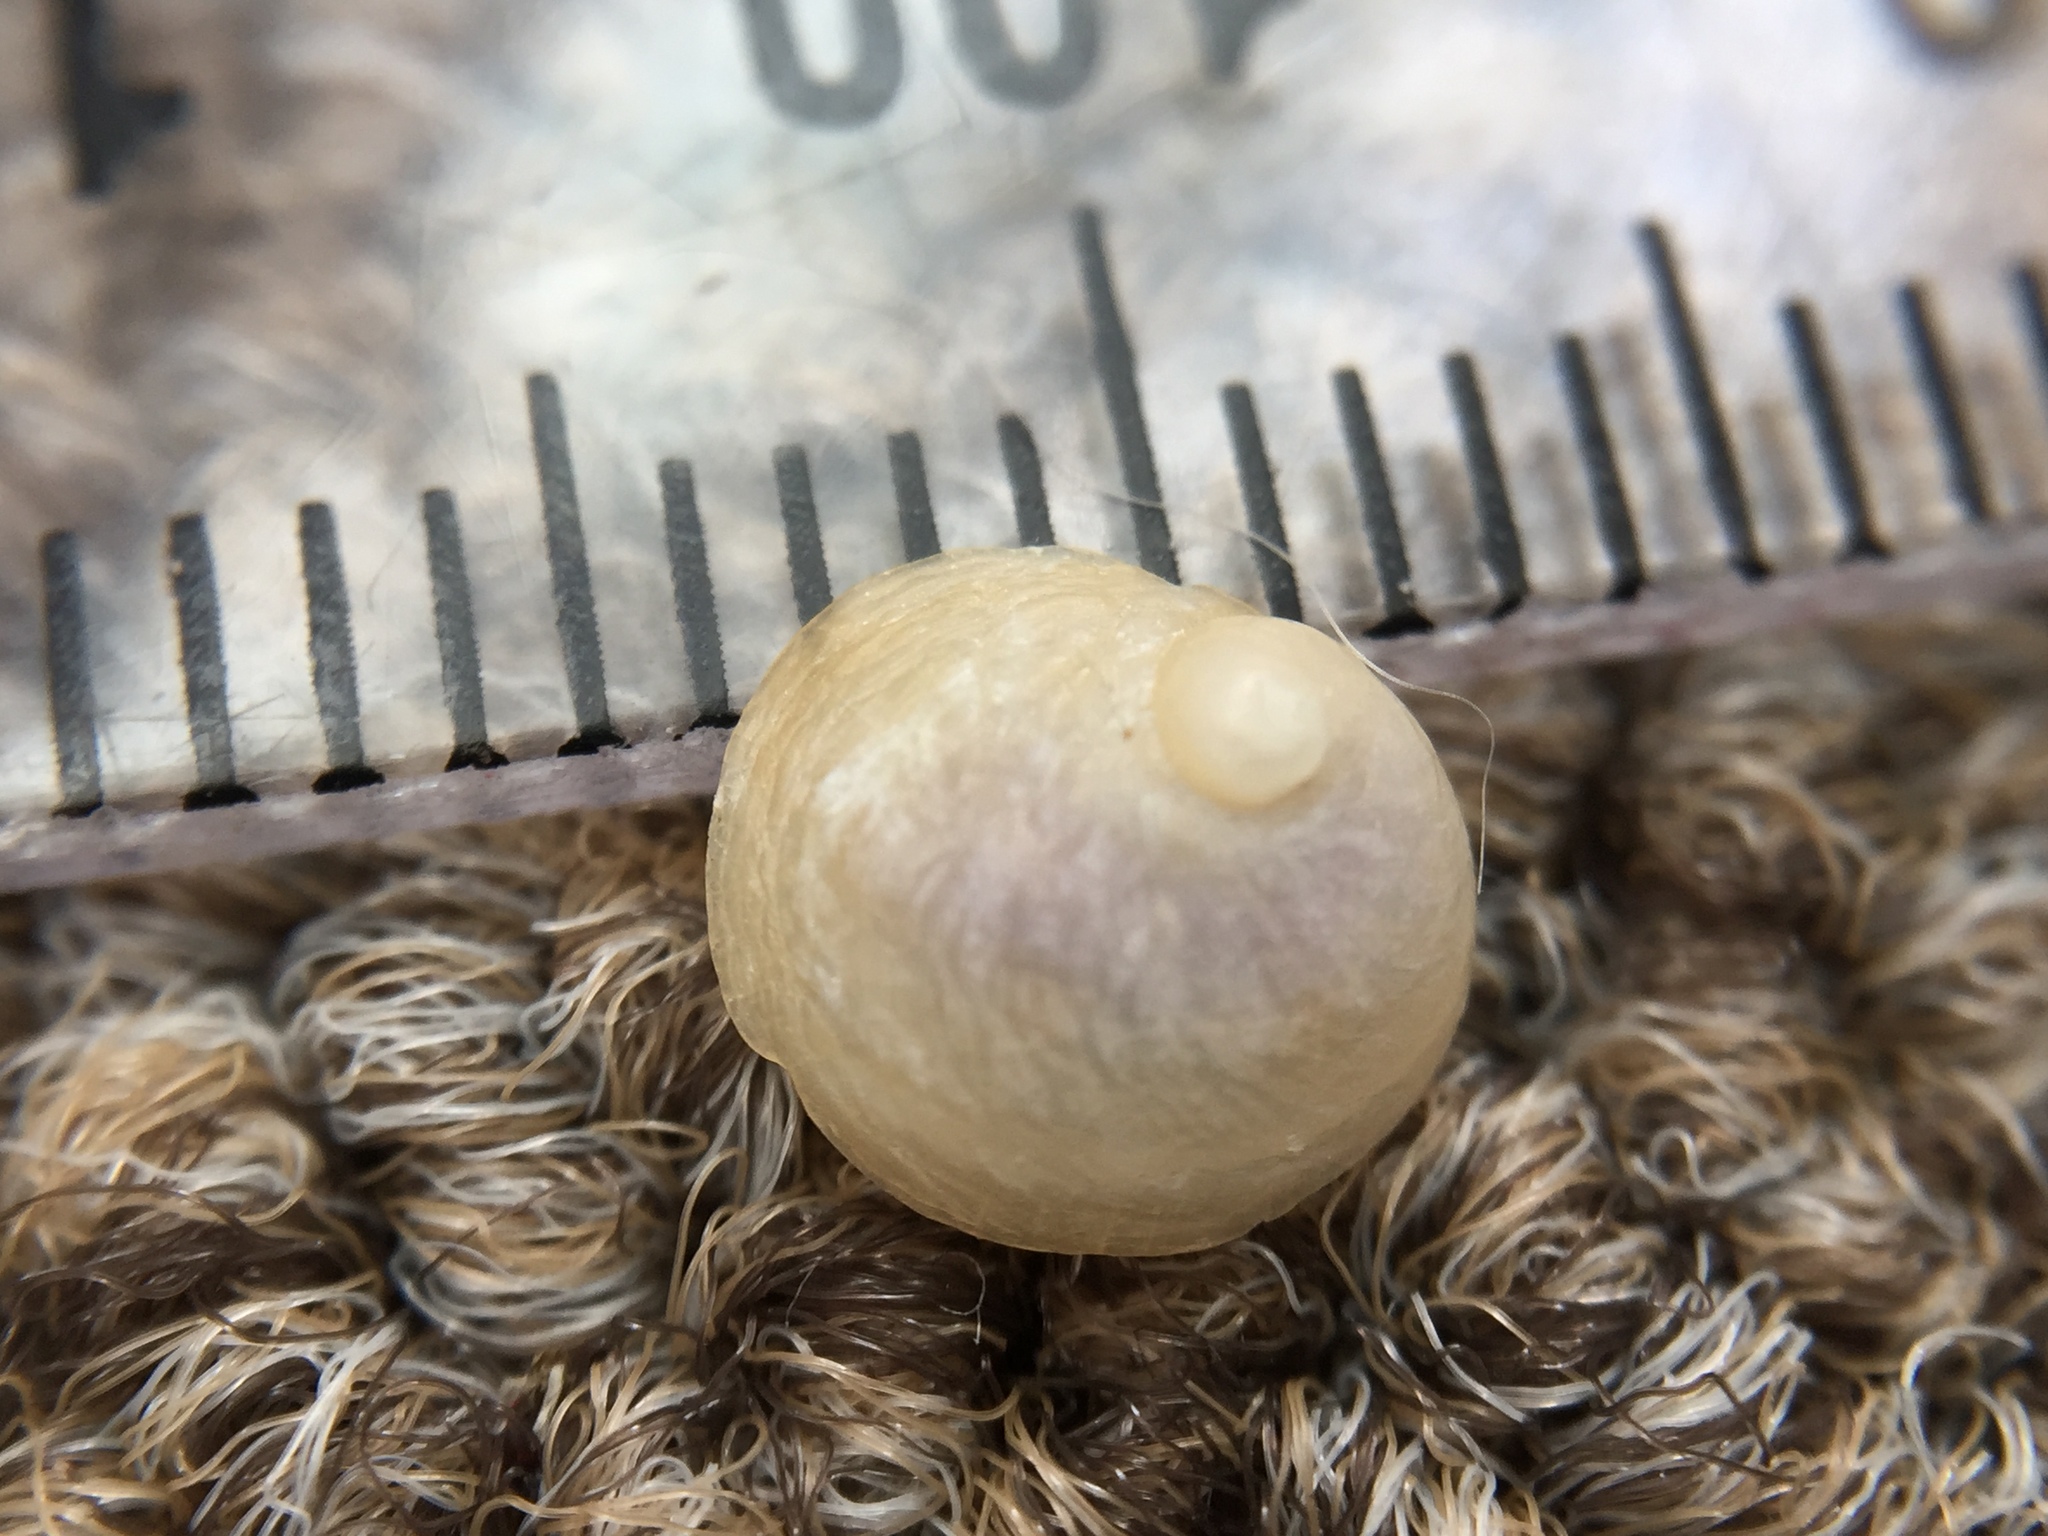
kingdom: Animalia
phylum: Mollusca
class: Gastropoda
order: Littorinimorpha
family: Calyptraeidae
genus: Sigapatella
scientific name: Sigapatella novaezelandiae
